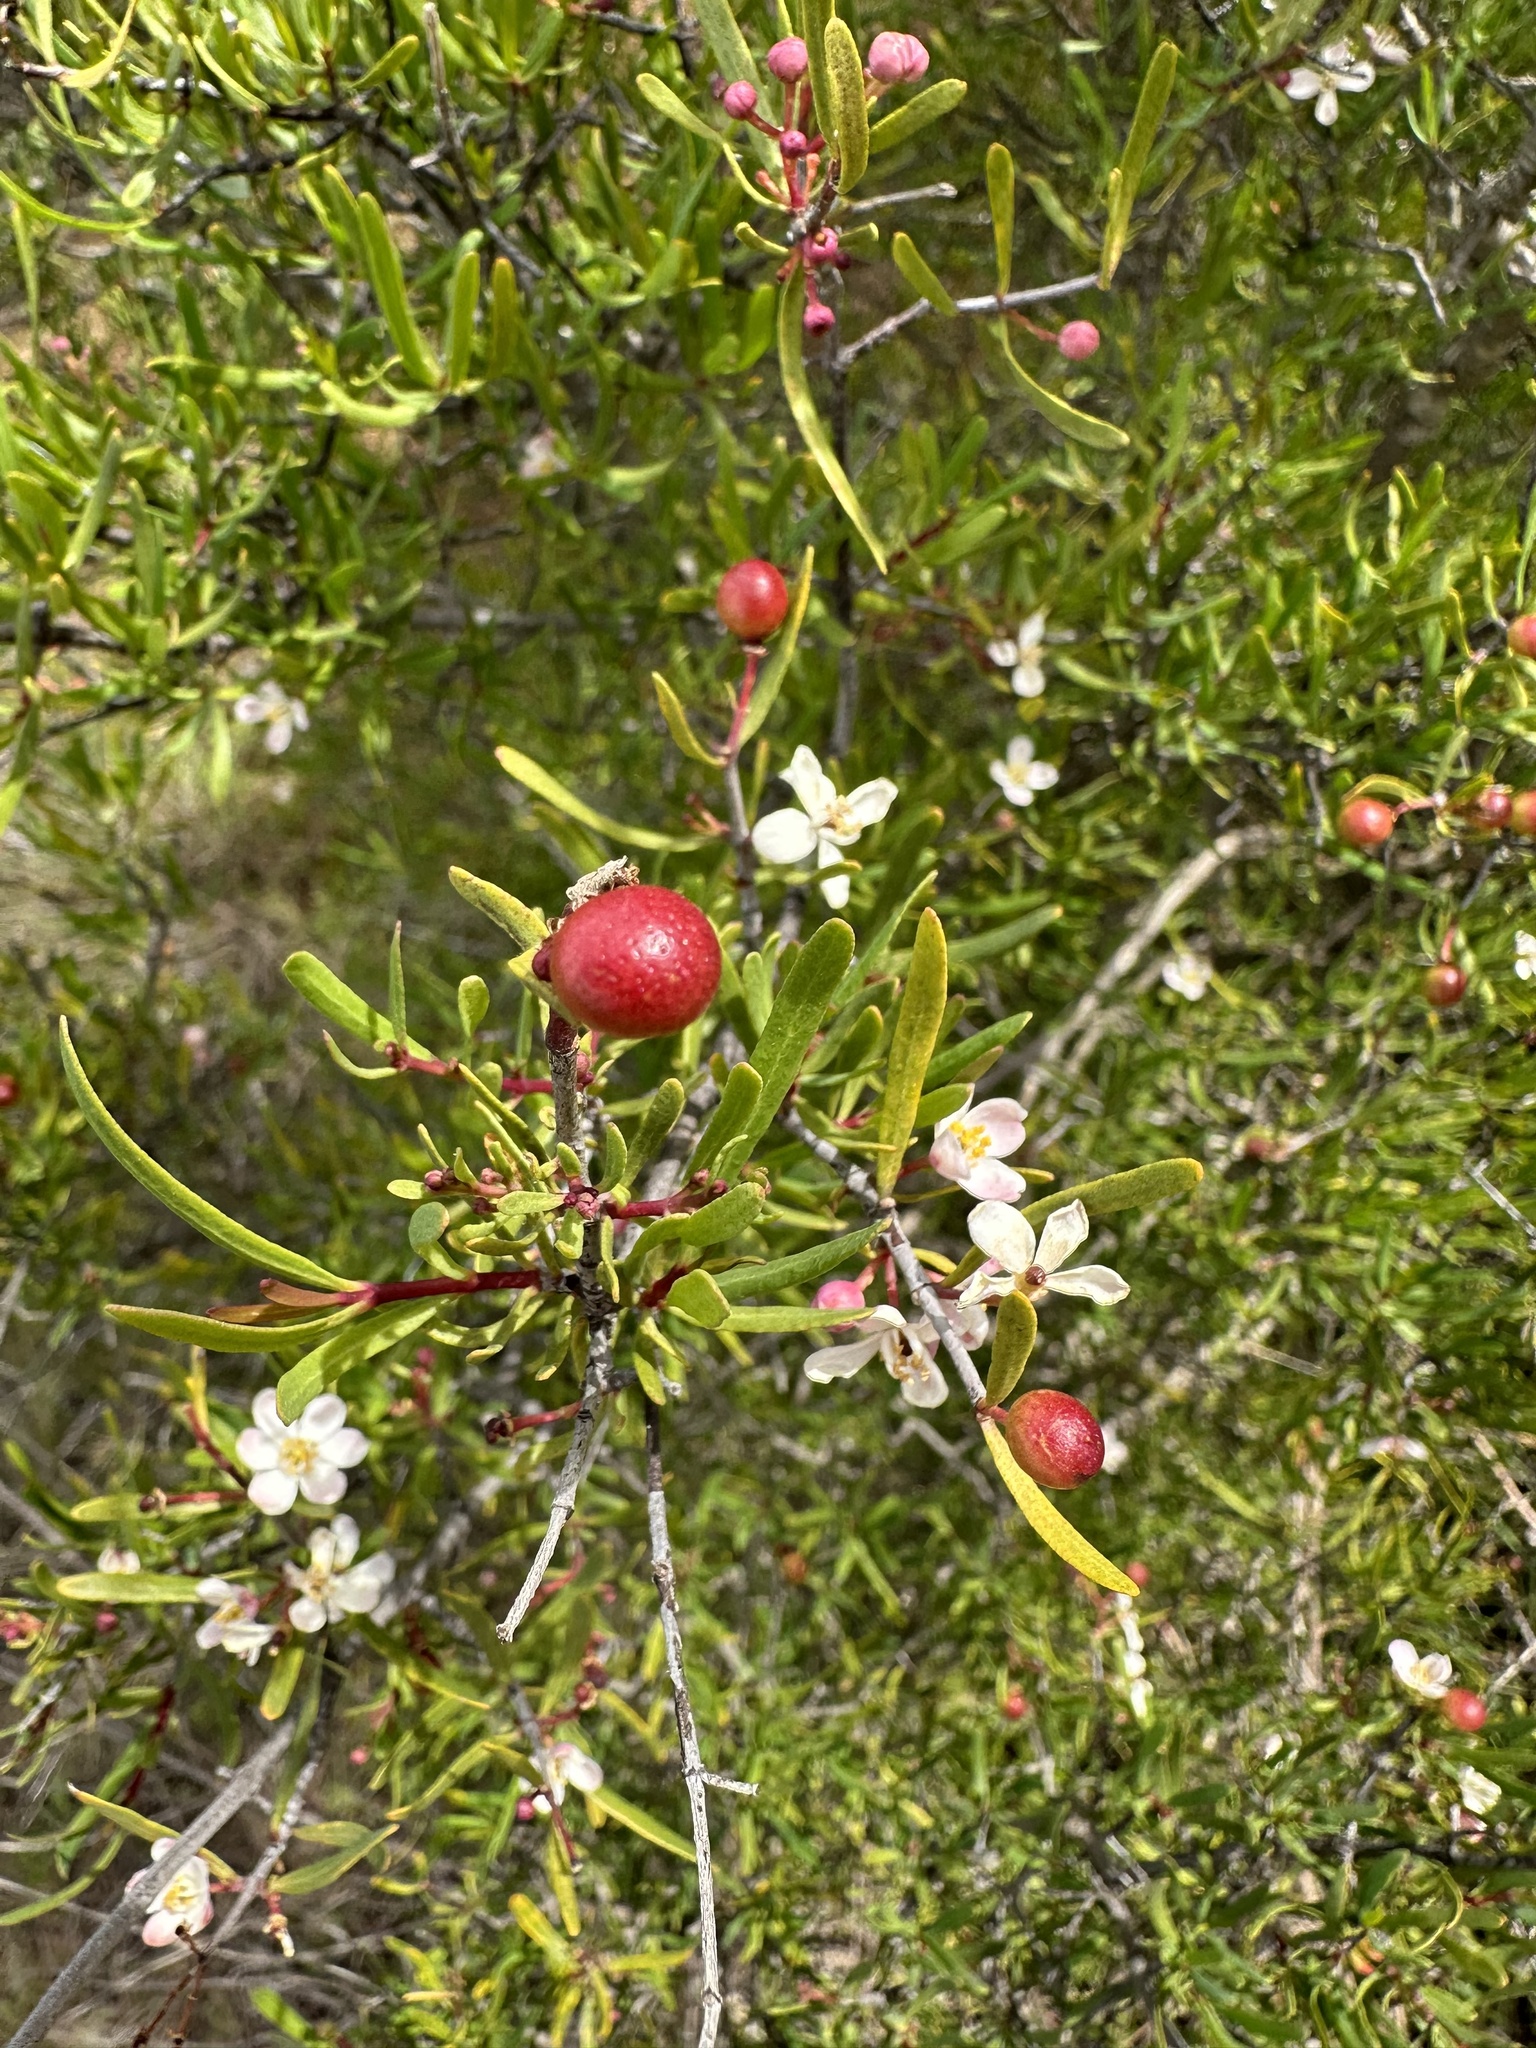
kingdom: Plantae
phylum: Tracheophyta
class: Magnoliopsida
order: Sapindales
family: Rutaceae
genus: Cneoridium
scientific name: Cneoridium dumosum
